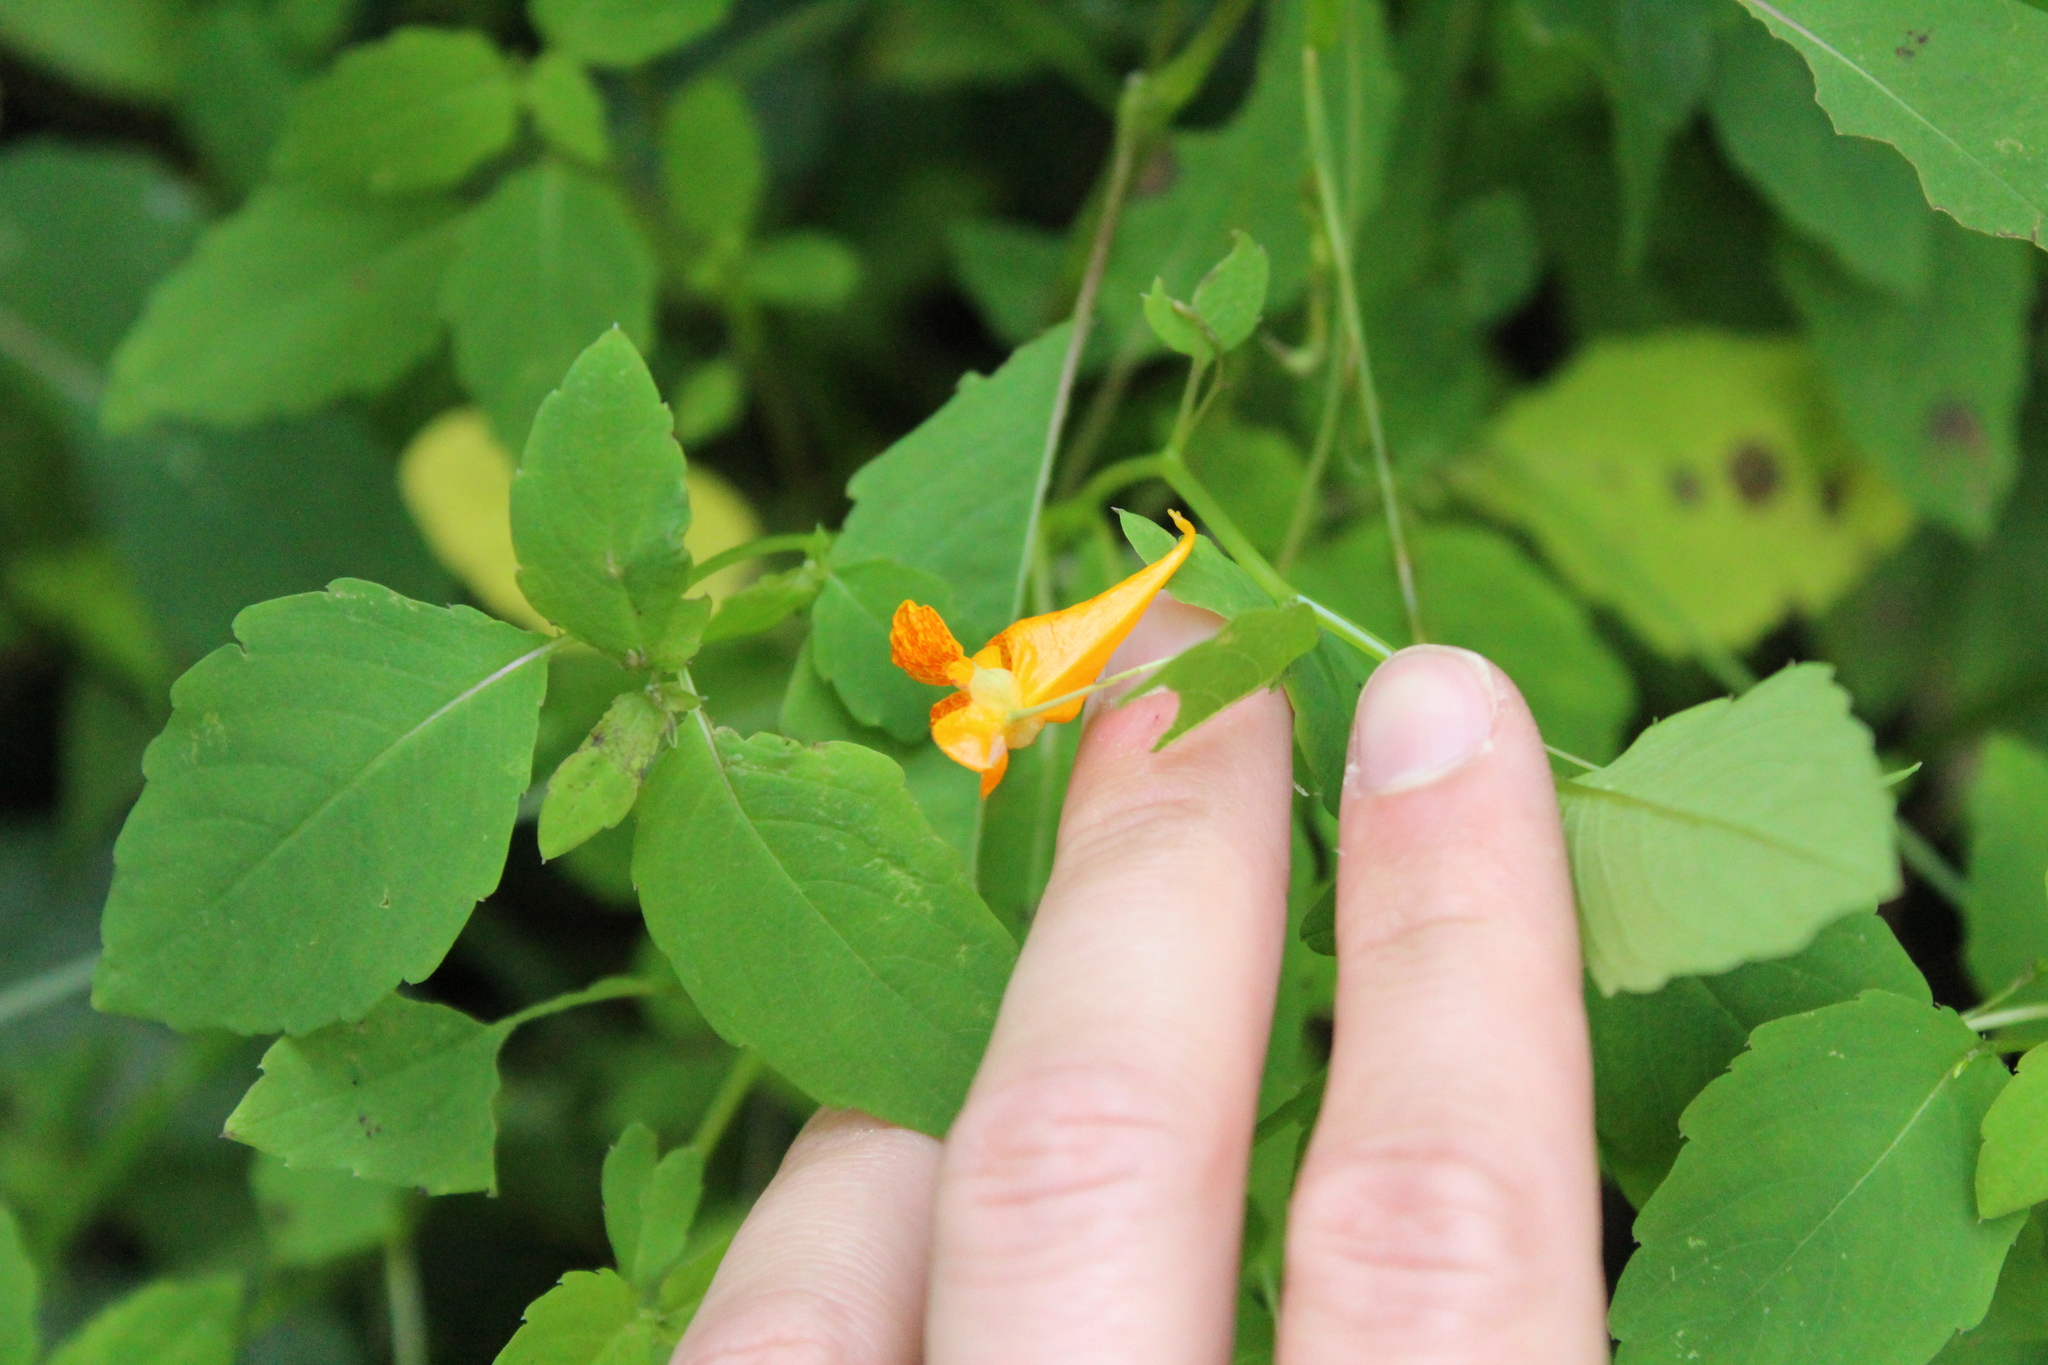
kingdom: Plantae
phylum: Tracheophyta
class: Magnoliopsida
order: Ericales
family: Balsaminaceae
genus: Impatiens
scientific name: Impatiens capensis
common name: Orange balsam
